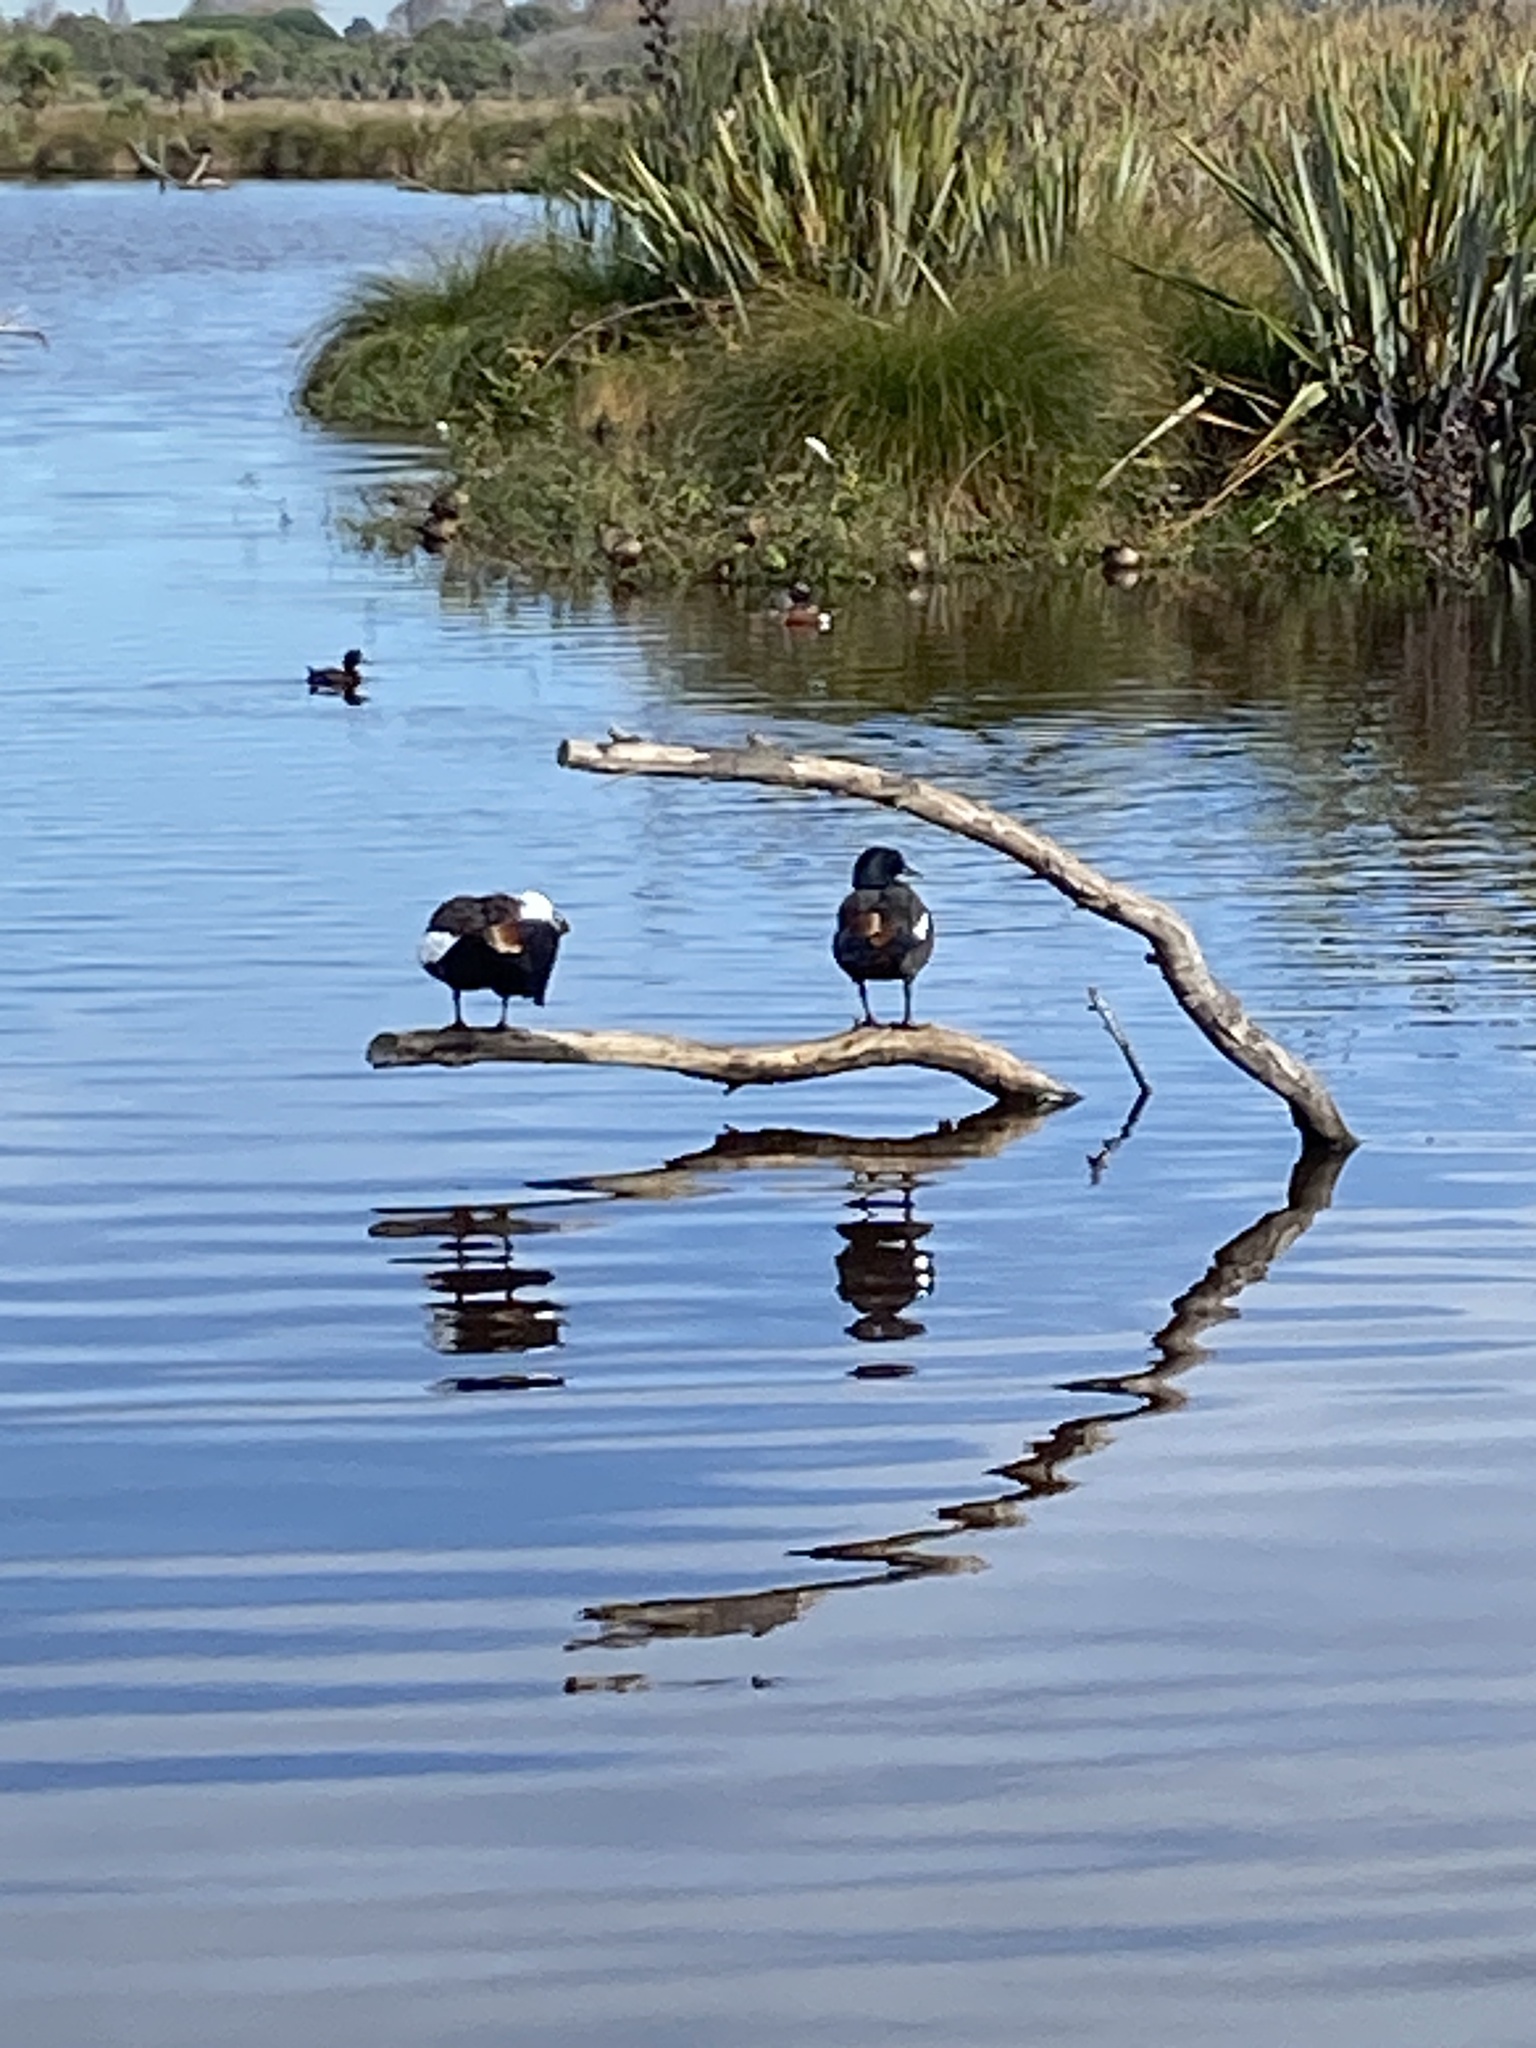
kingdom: Animalia
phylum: Chordata
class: Aves
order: Anseriformes
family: Anatidae
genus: Tadorna
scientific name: Tadorna variegata
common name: Paradise shelduck
